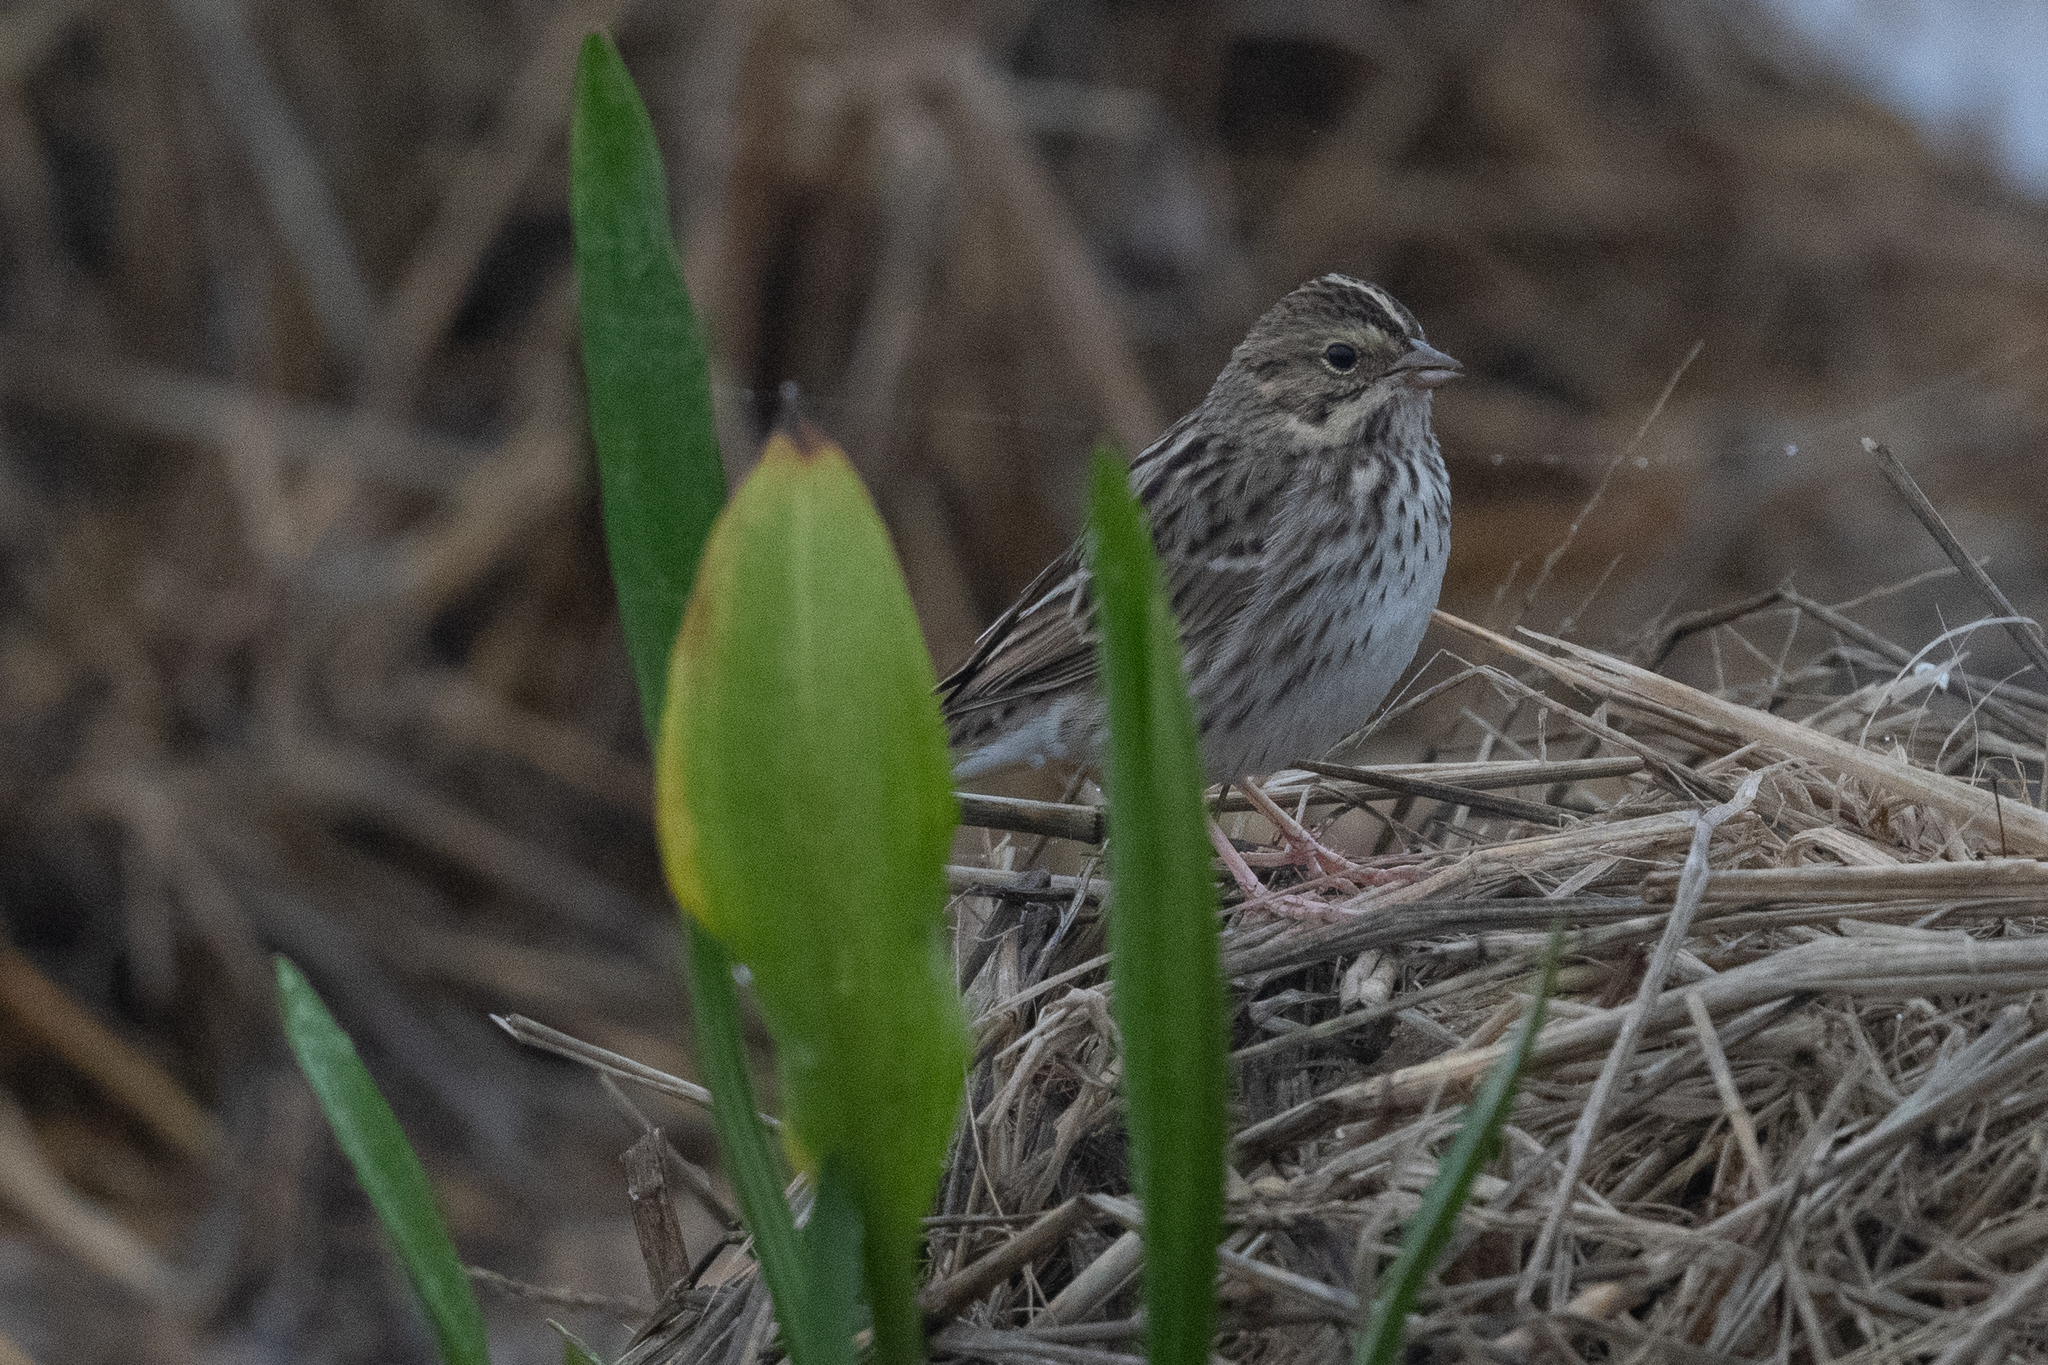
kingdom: Animalia
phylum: Chordata
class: Aves
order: Passeriformes
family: Passerellidae
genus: Passerculus
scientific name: Passerculus sandwichensis
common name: Savannah sparrow
